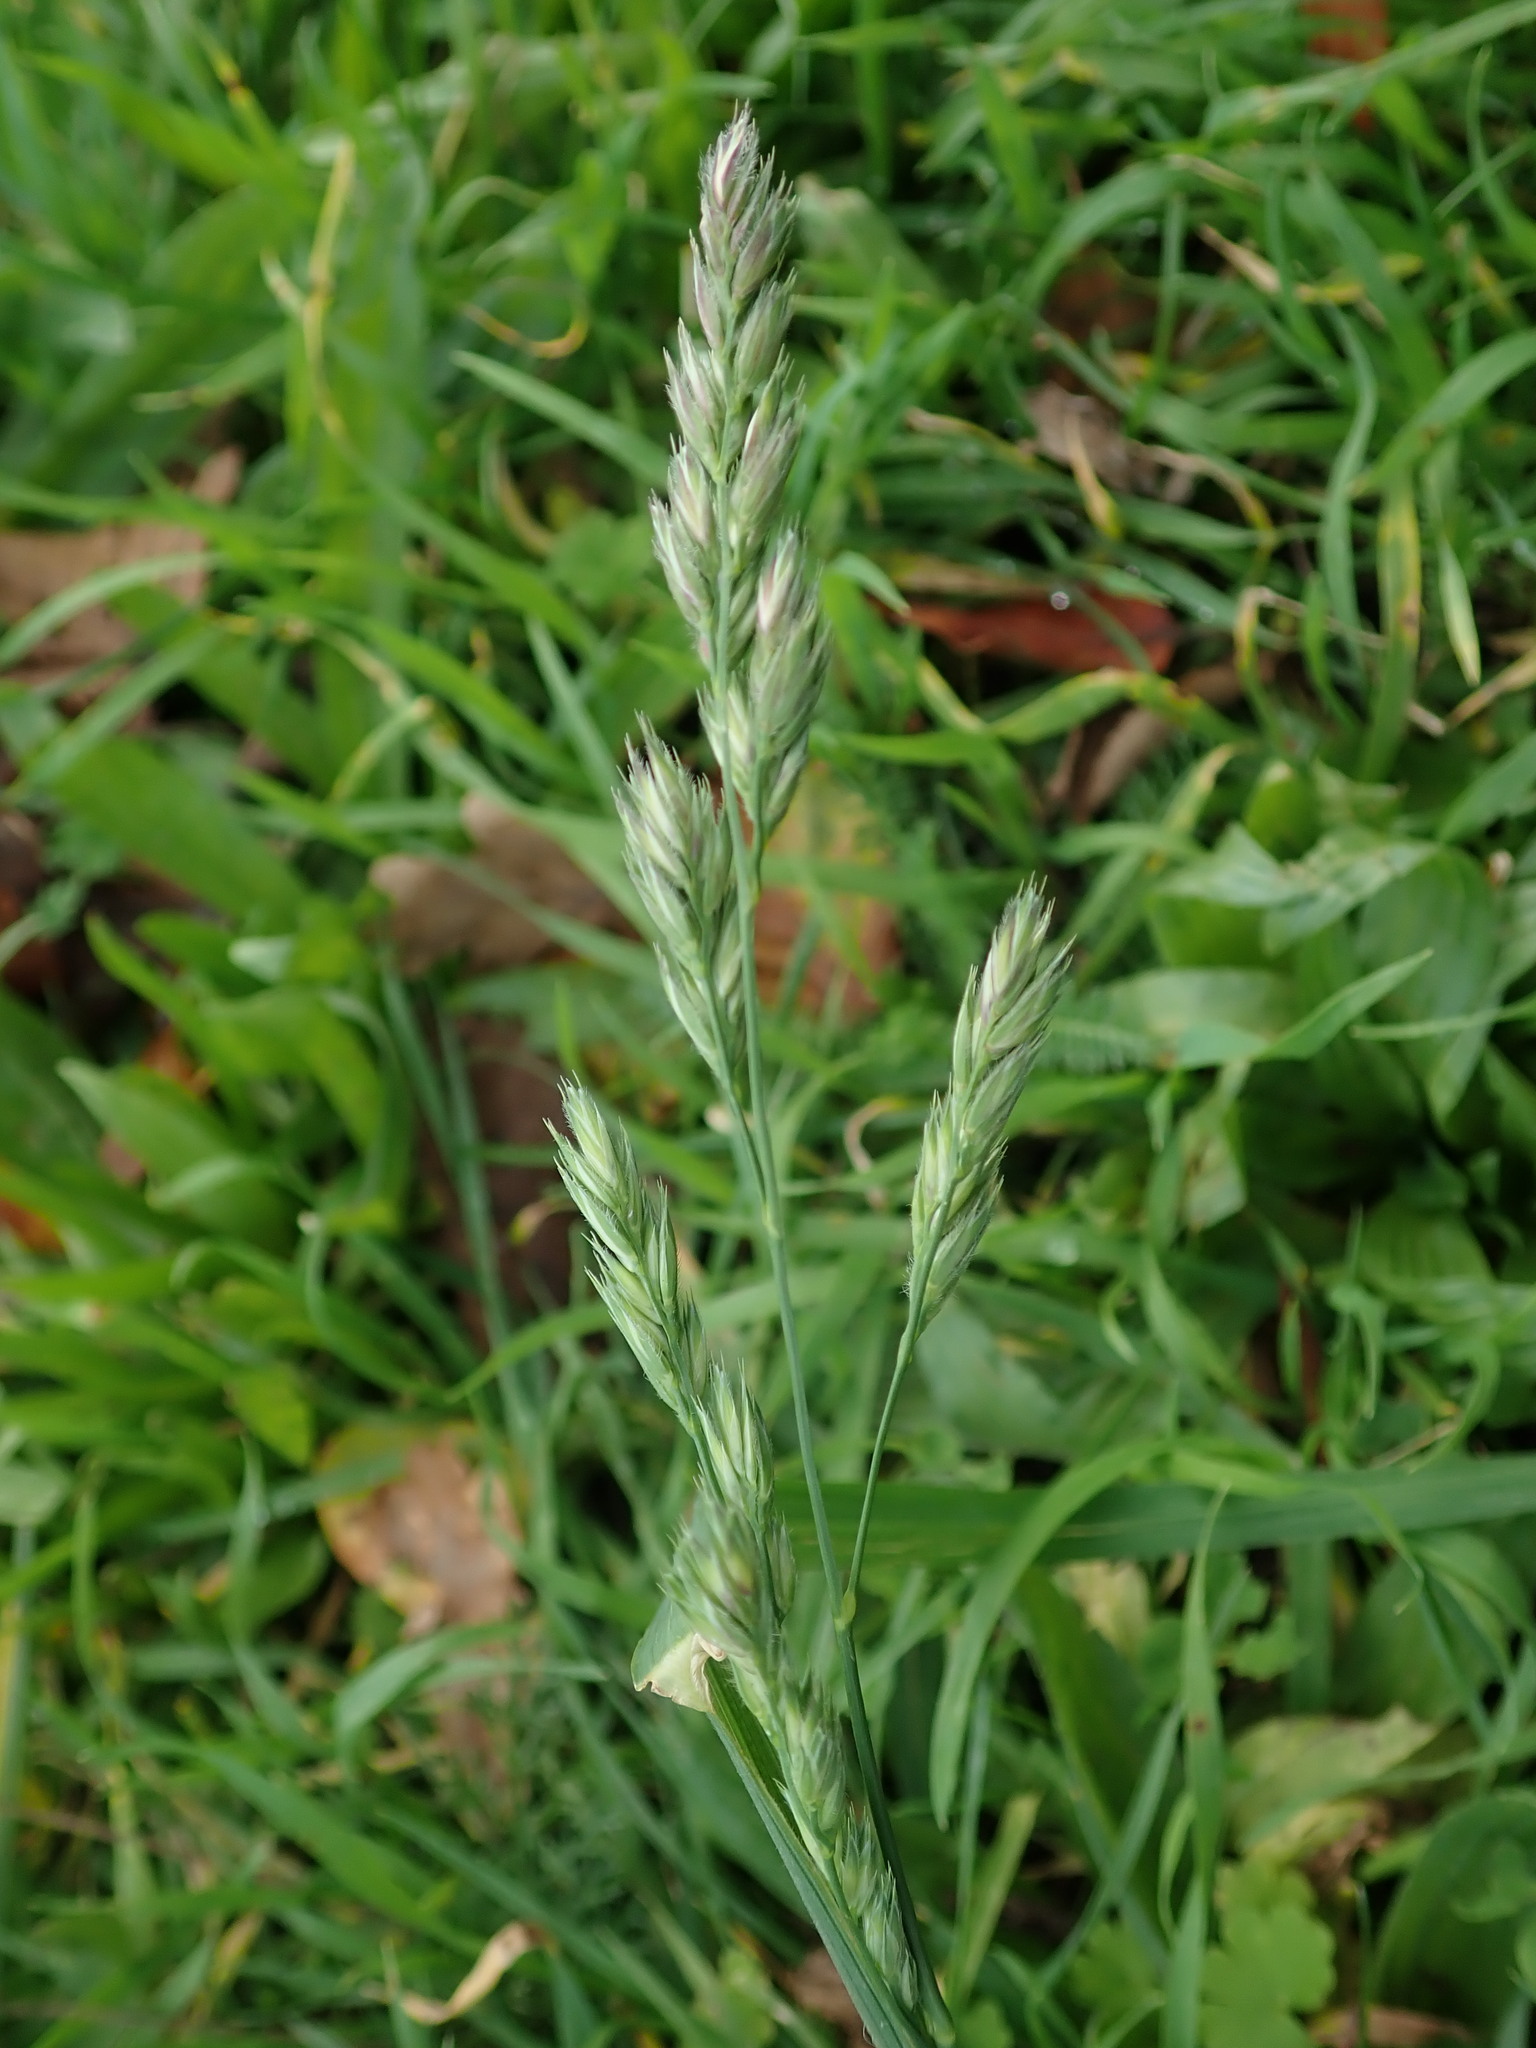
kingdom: Plantae
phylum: Tracheophyta
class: Liliopsida
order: Poales
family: Poaceae
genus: Dactylis
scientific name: Dactylis glomerata
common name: Orchardgrass
